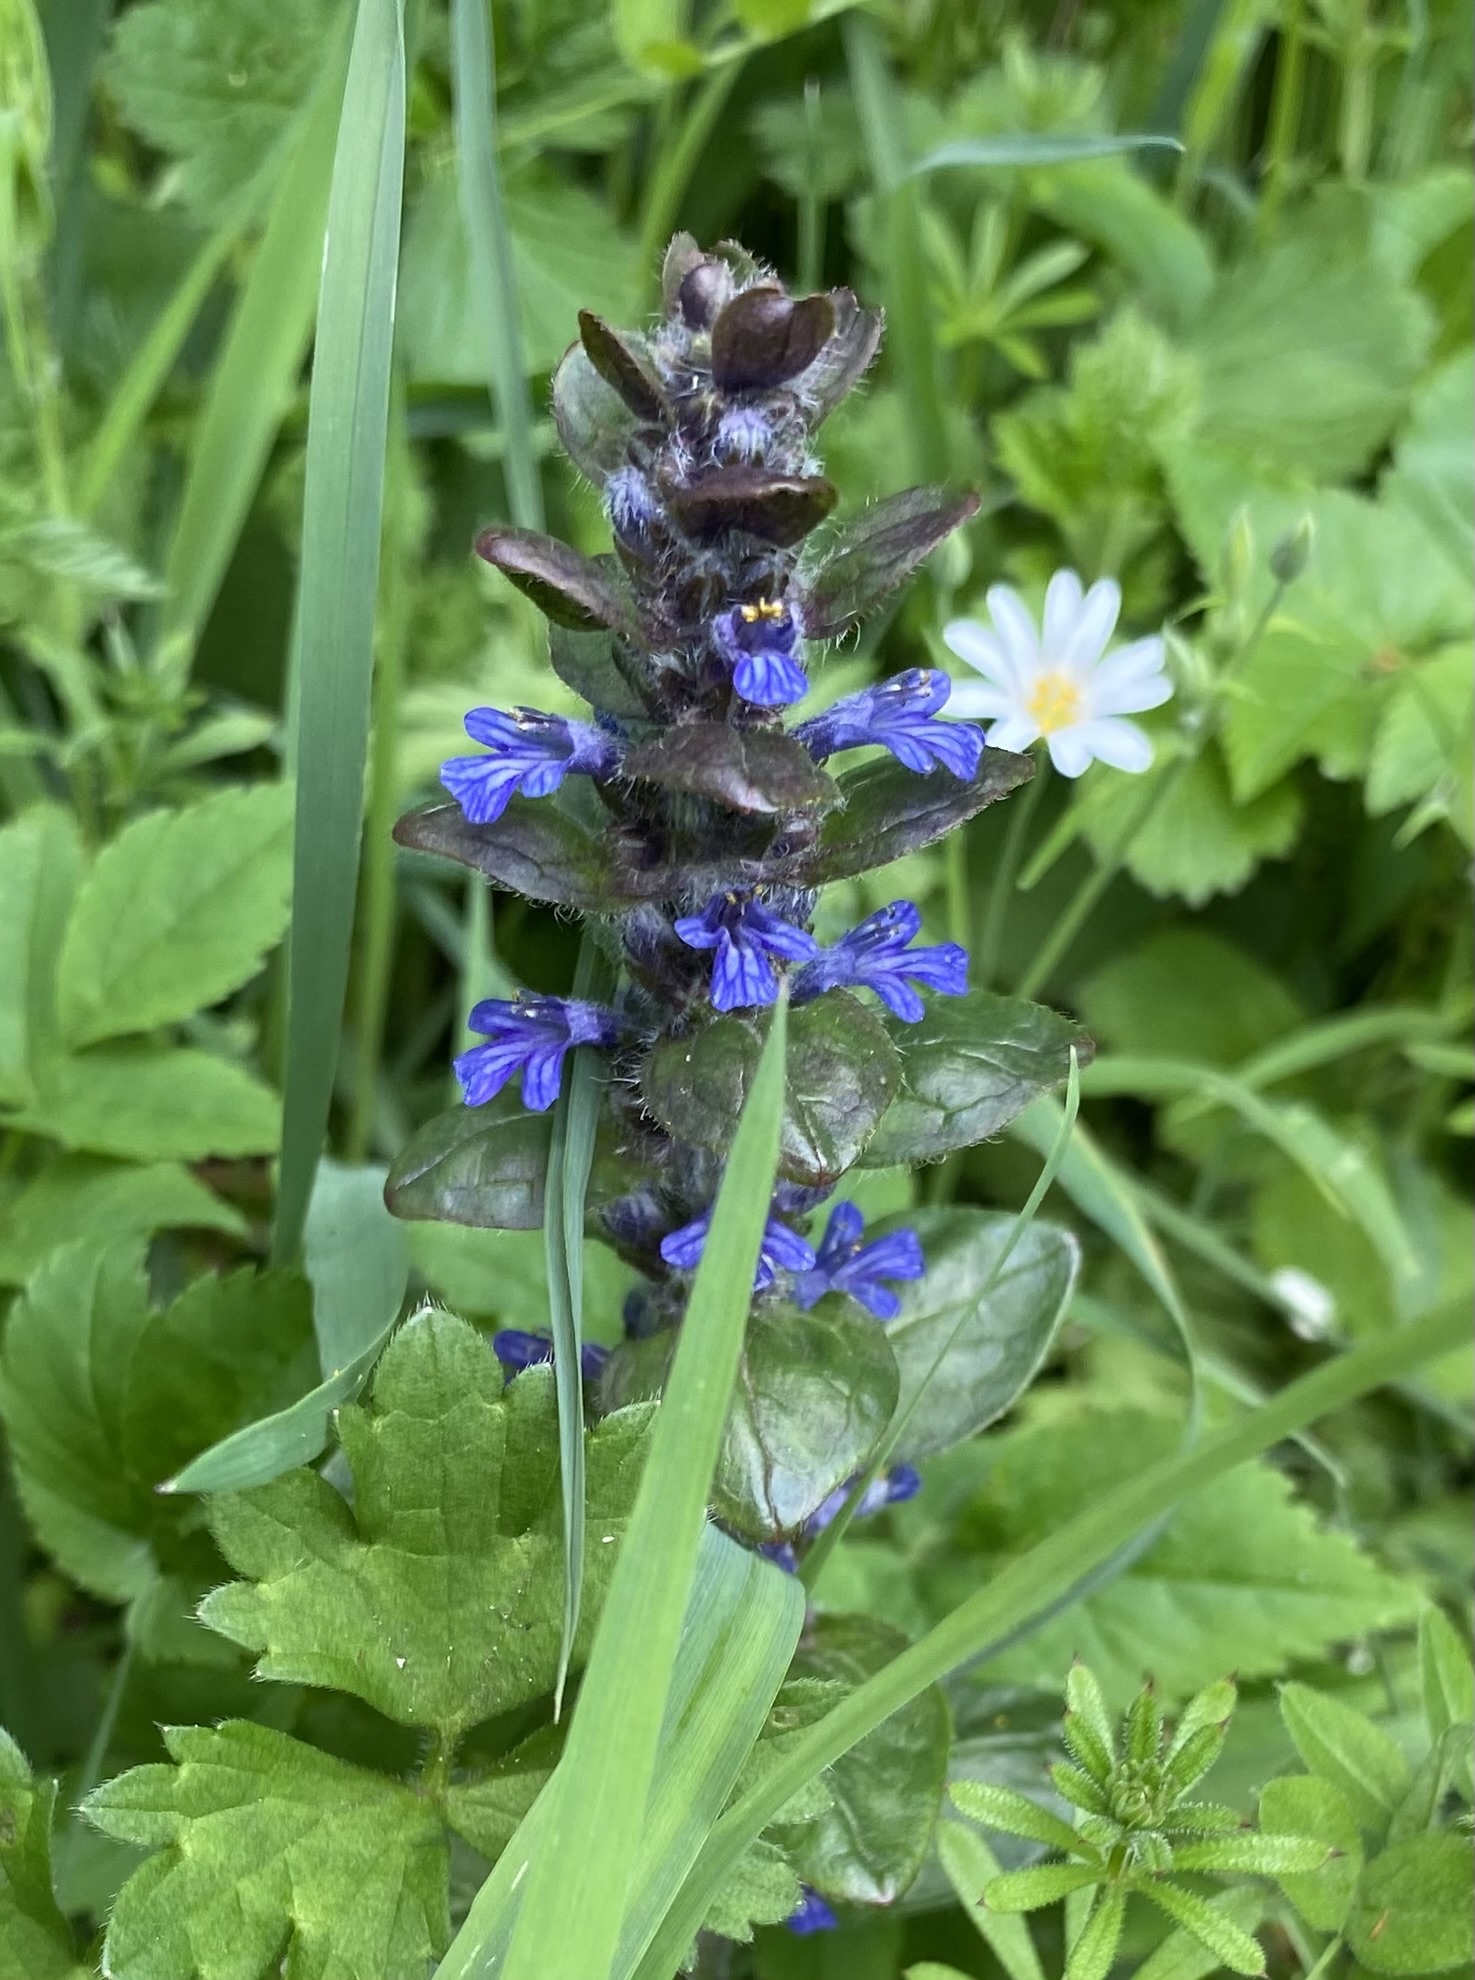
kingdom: Plantae
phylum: Tracheophyta
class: Magnoliopsida
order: Lamiales
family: Lamiaceae
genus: Ajuga
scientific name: Ajuga reptans
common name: Bugle
